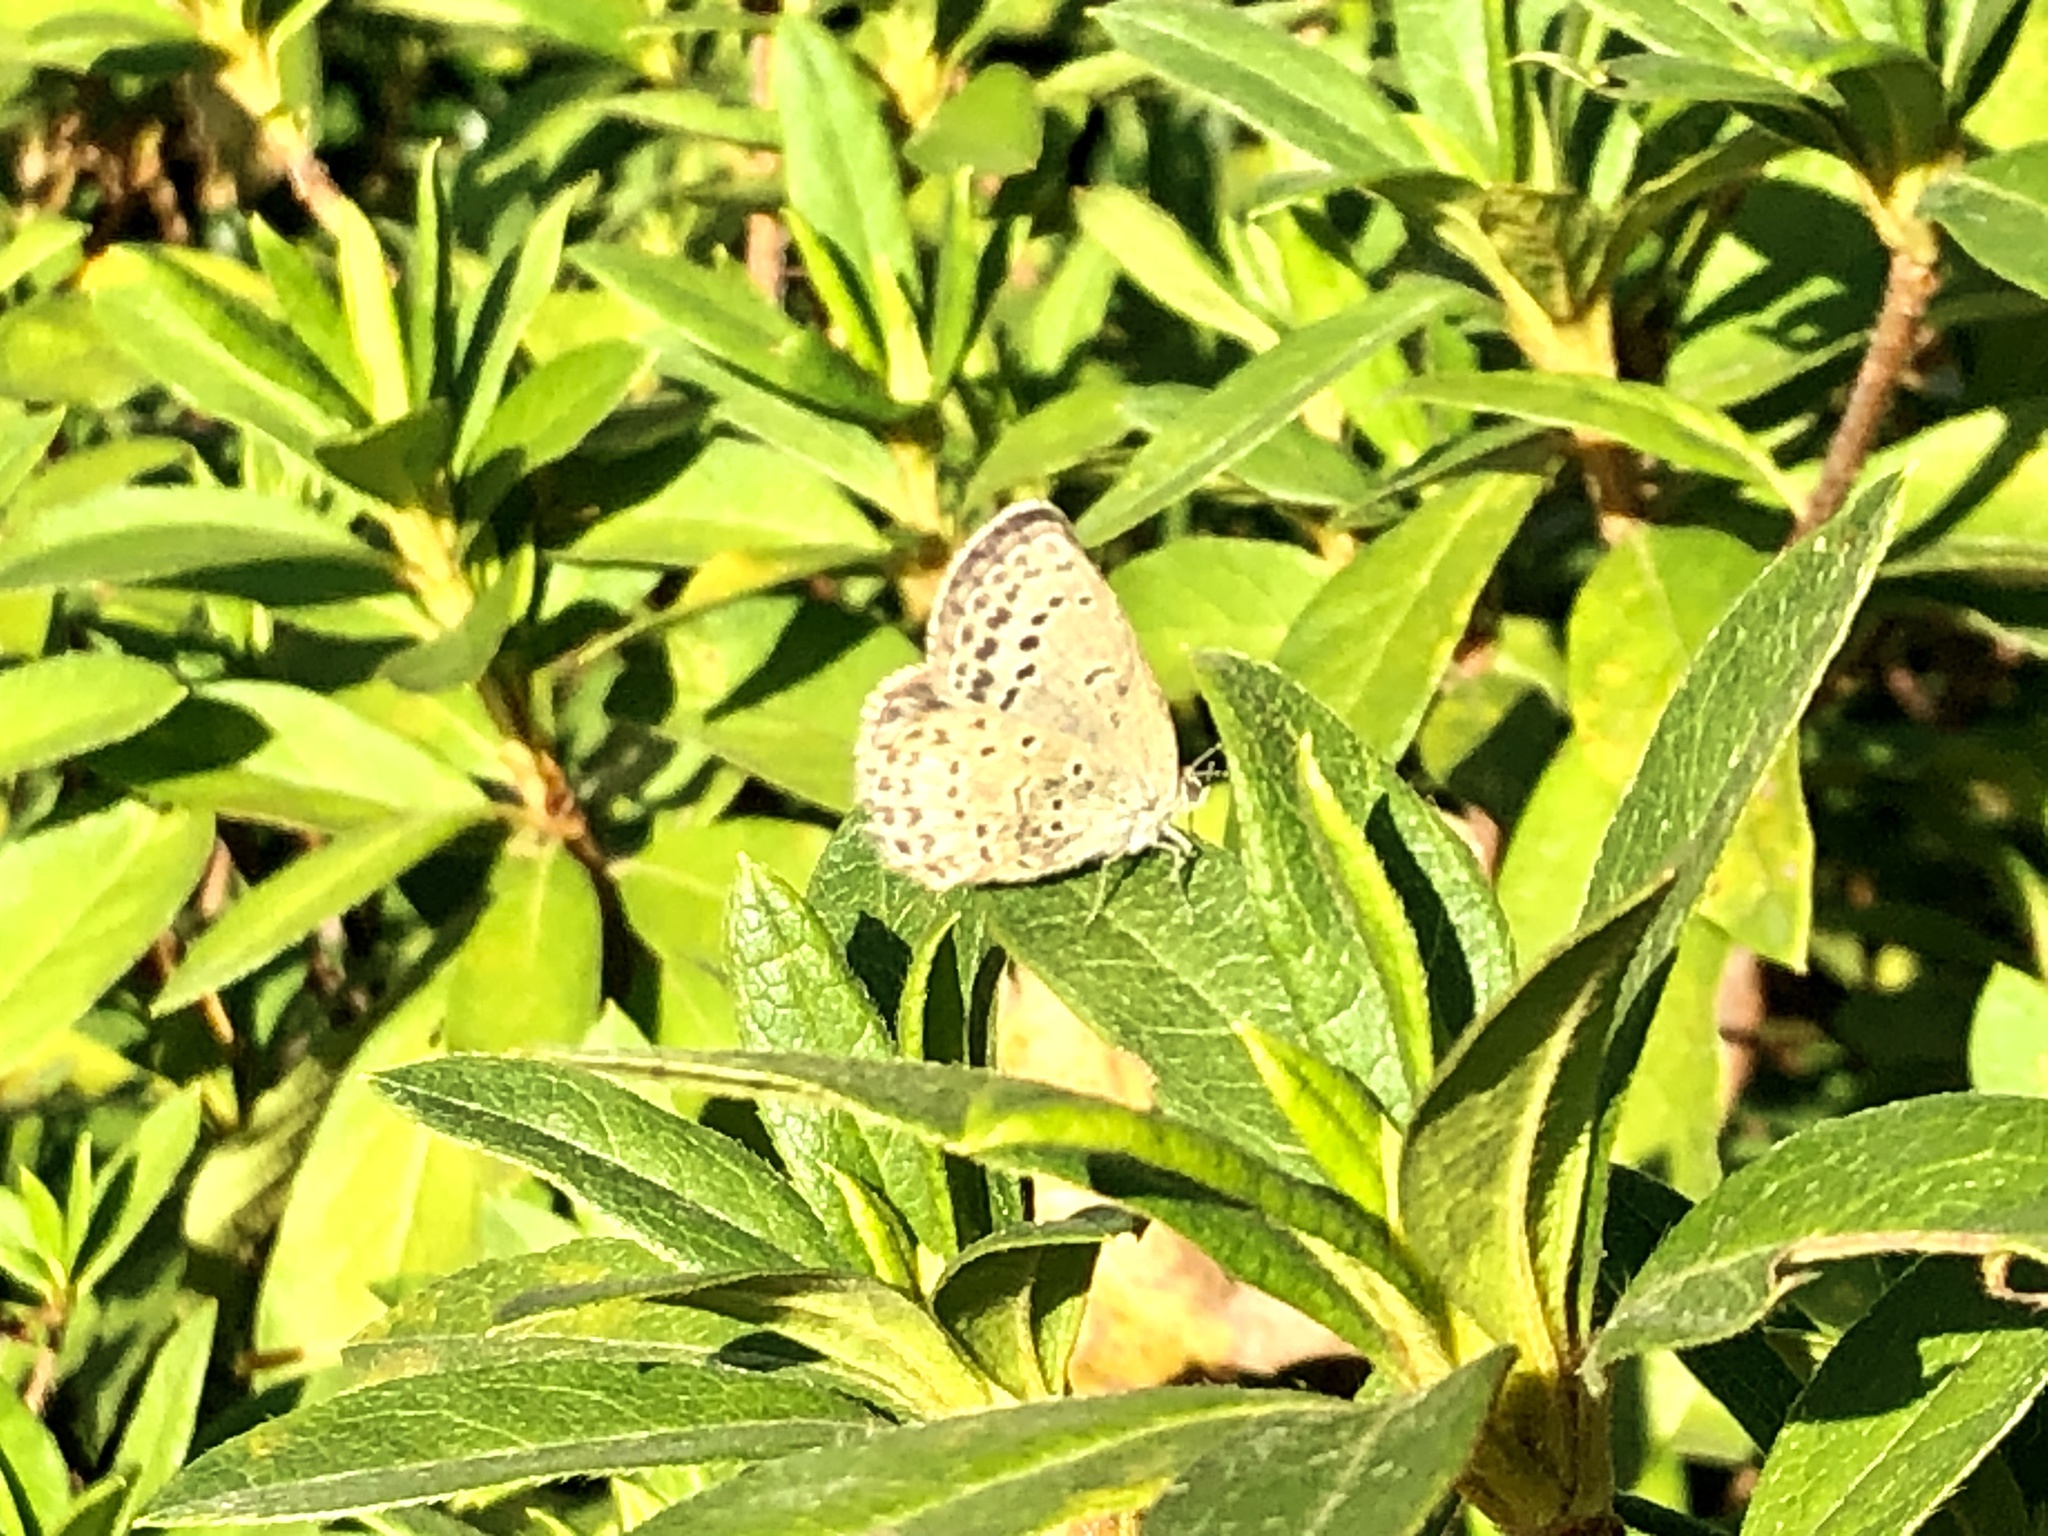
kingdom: Animalia
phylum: Arthropoda
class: Insecta
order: Lepidoptera
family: Lycaenidae
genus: Pseudozizeeria
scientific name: Pseudozizeeria maha
